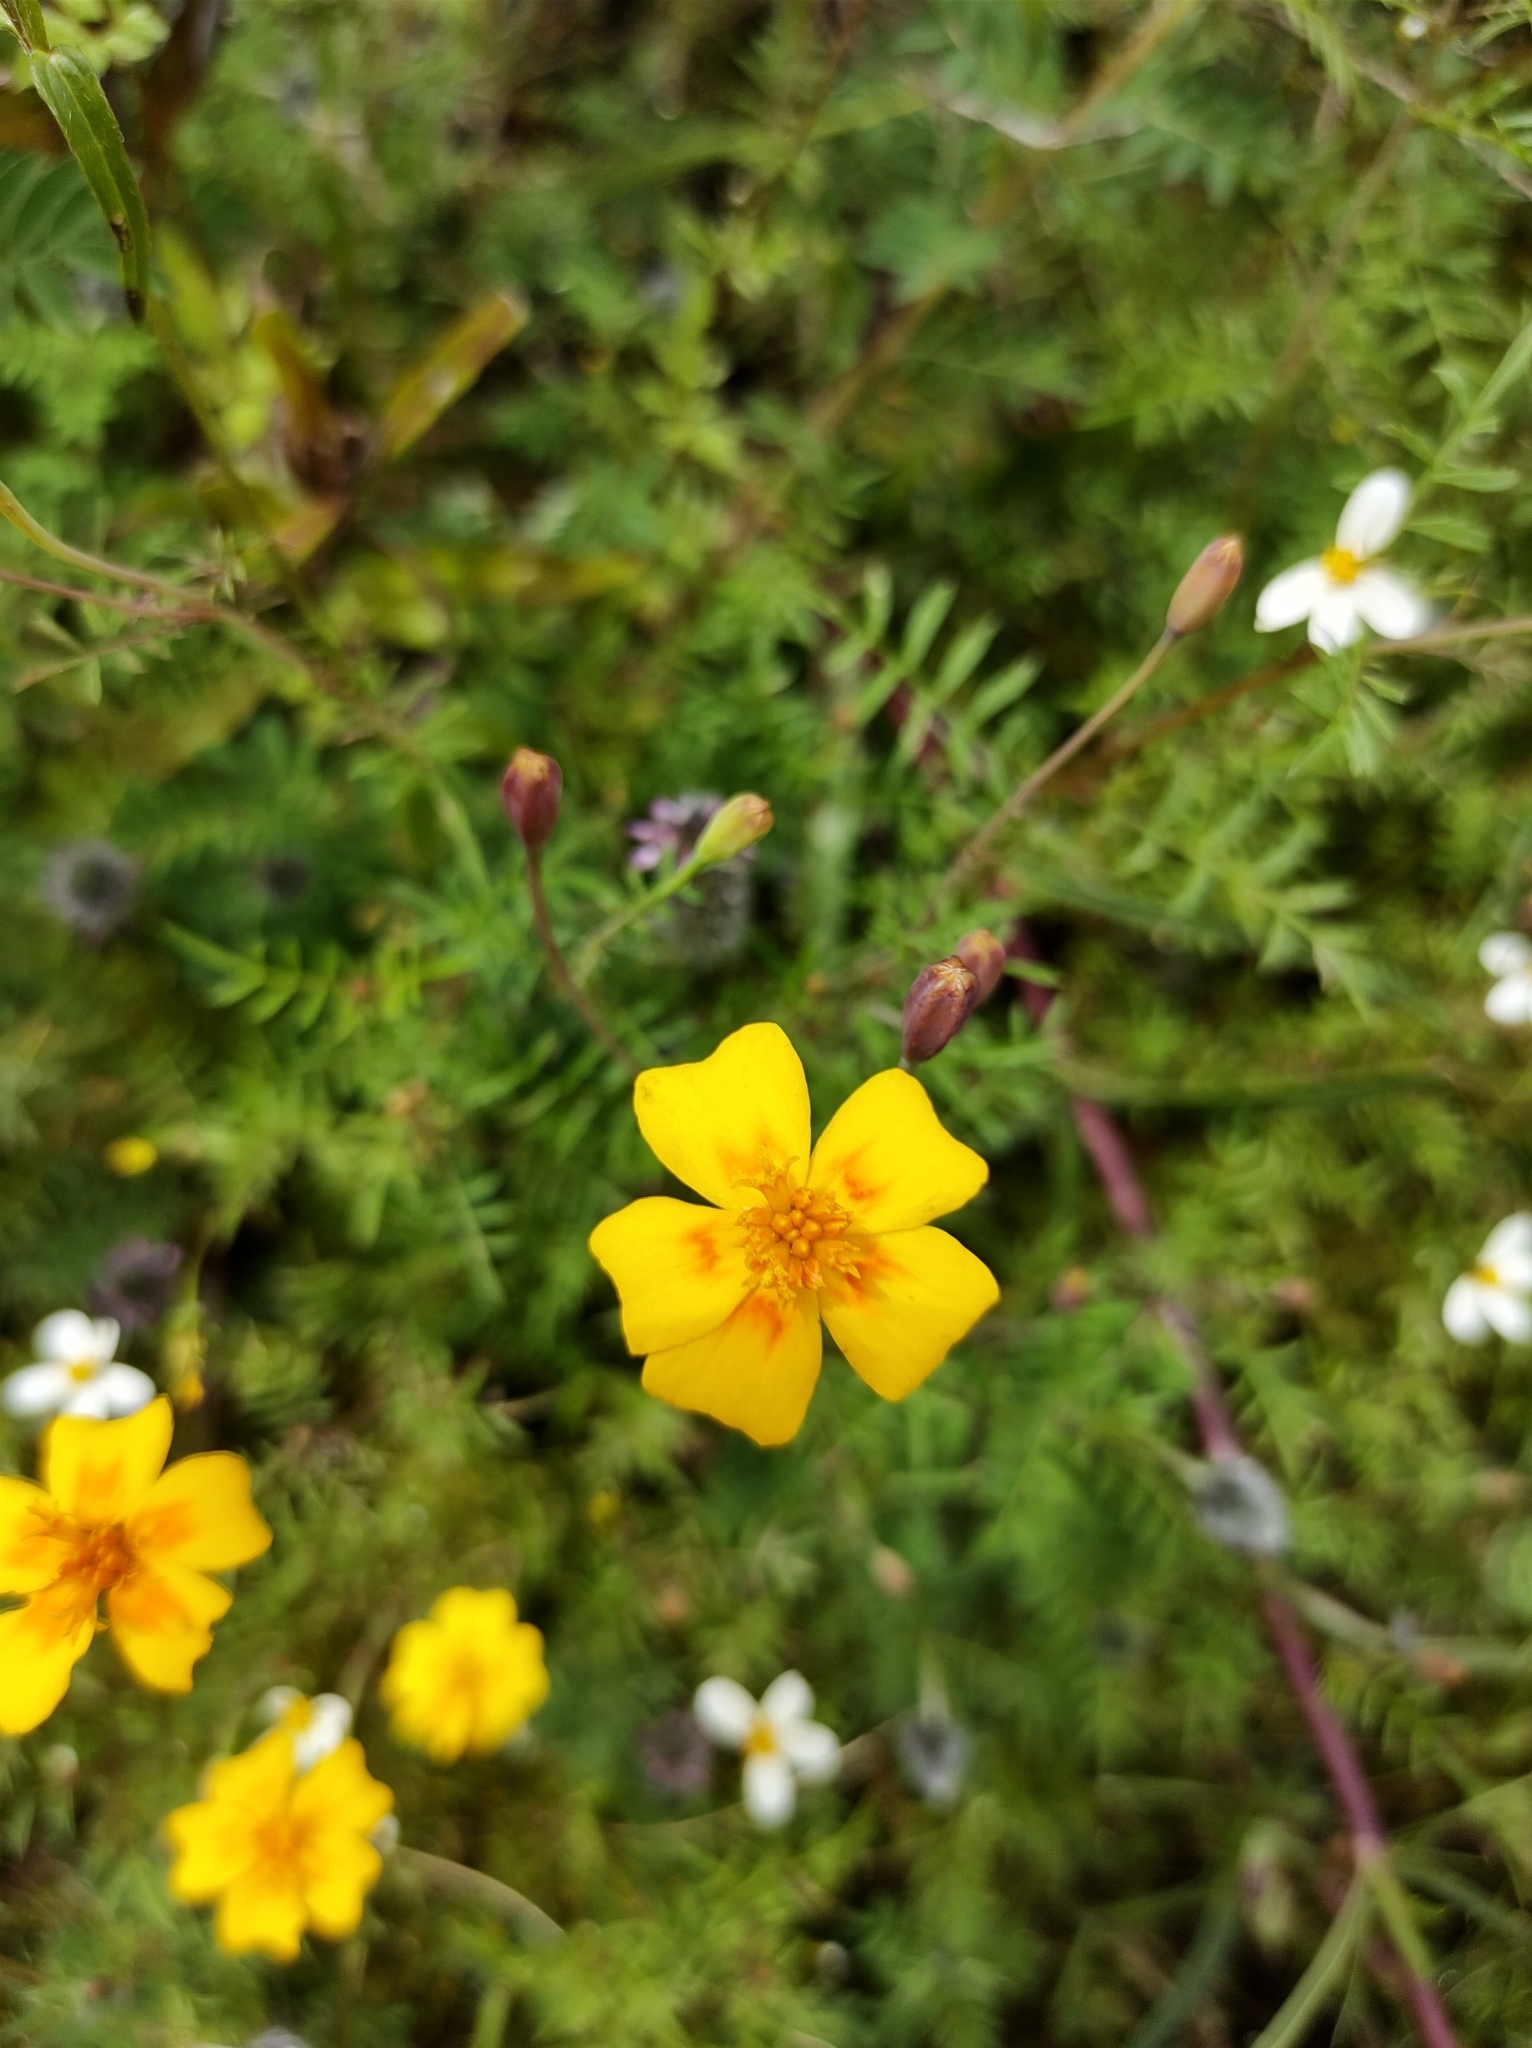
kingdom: Plantae
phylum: Tracheophyta
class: Magnoliopsida
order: Asterales
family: Asteraceae
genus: Tagetes
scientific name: Tagetes lunulata
